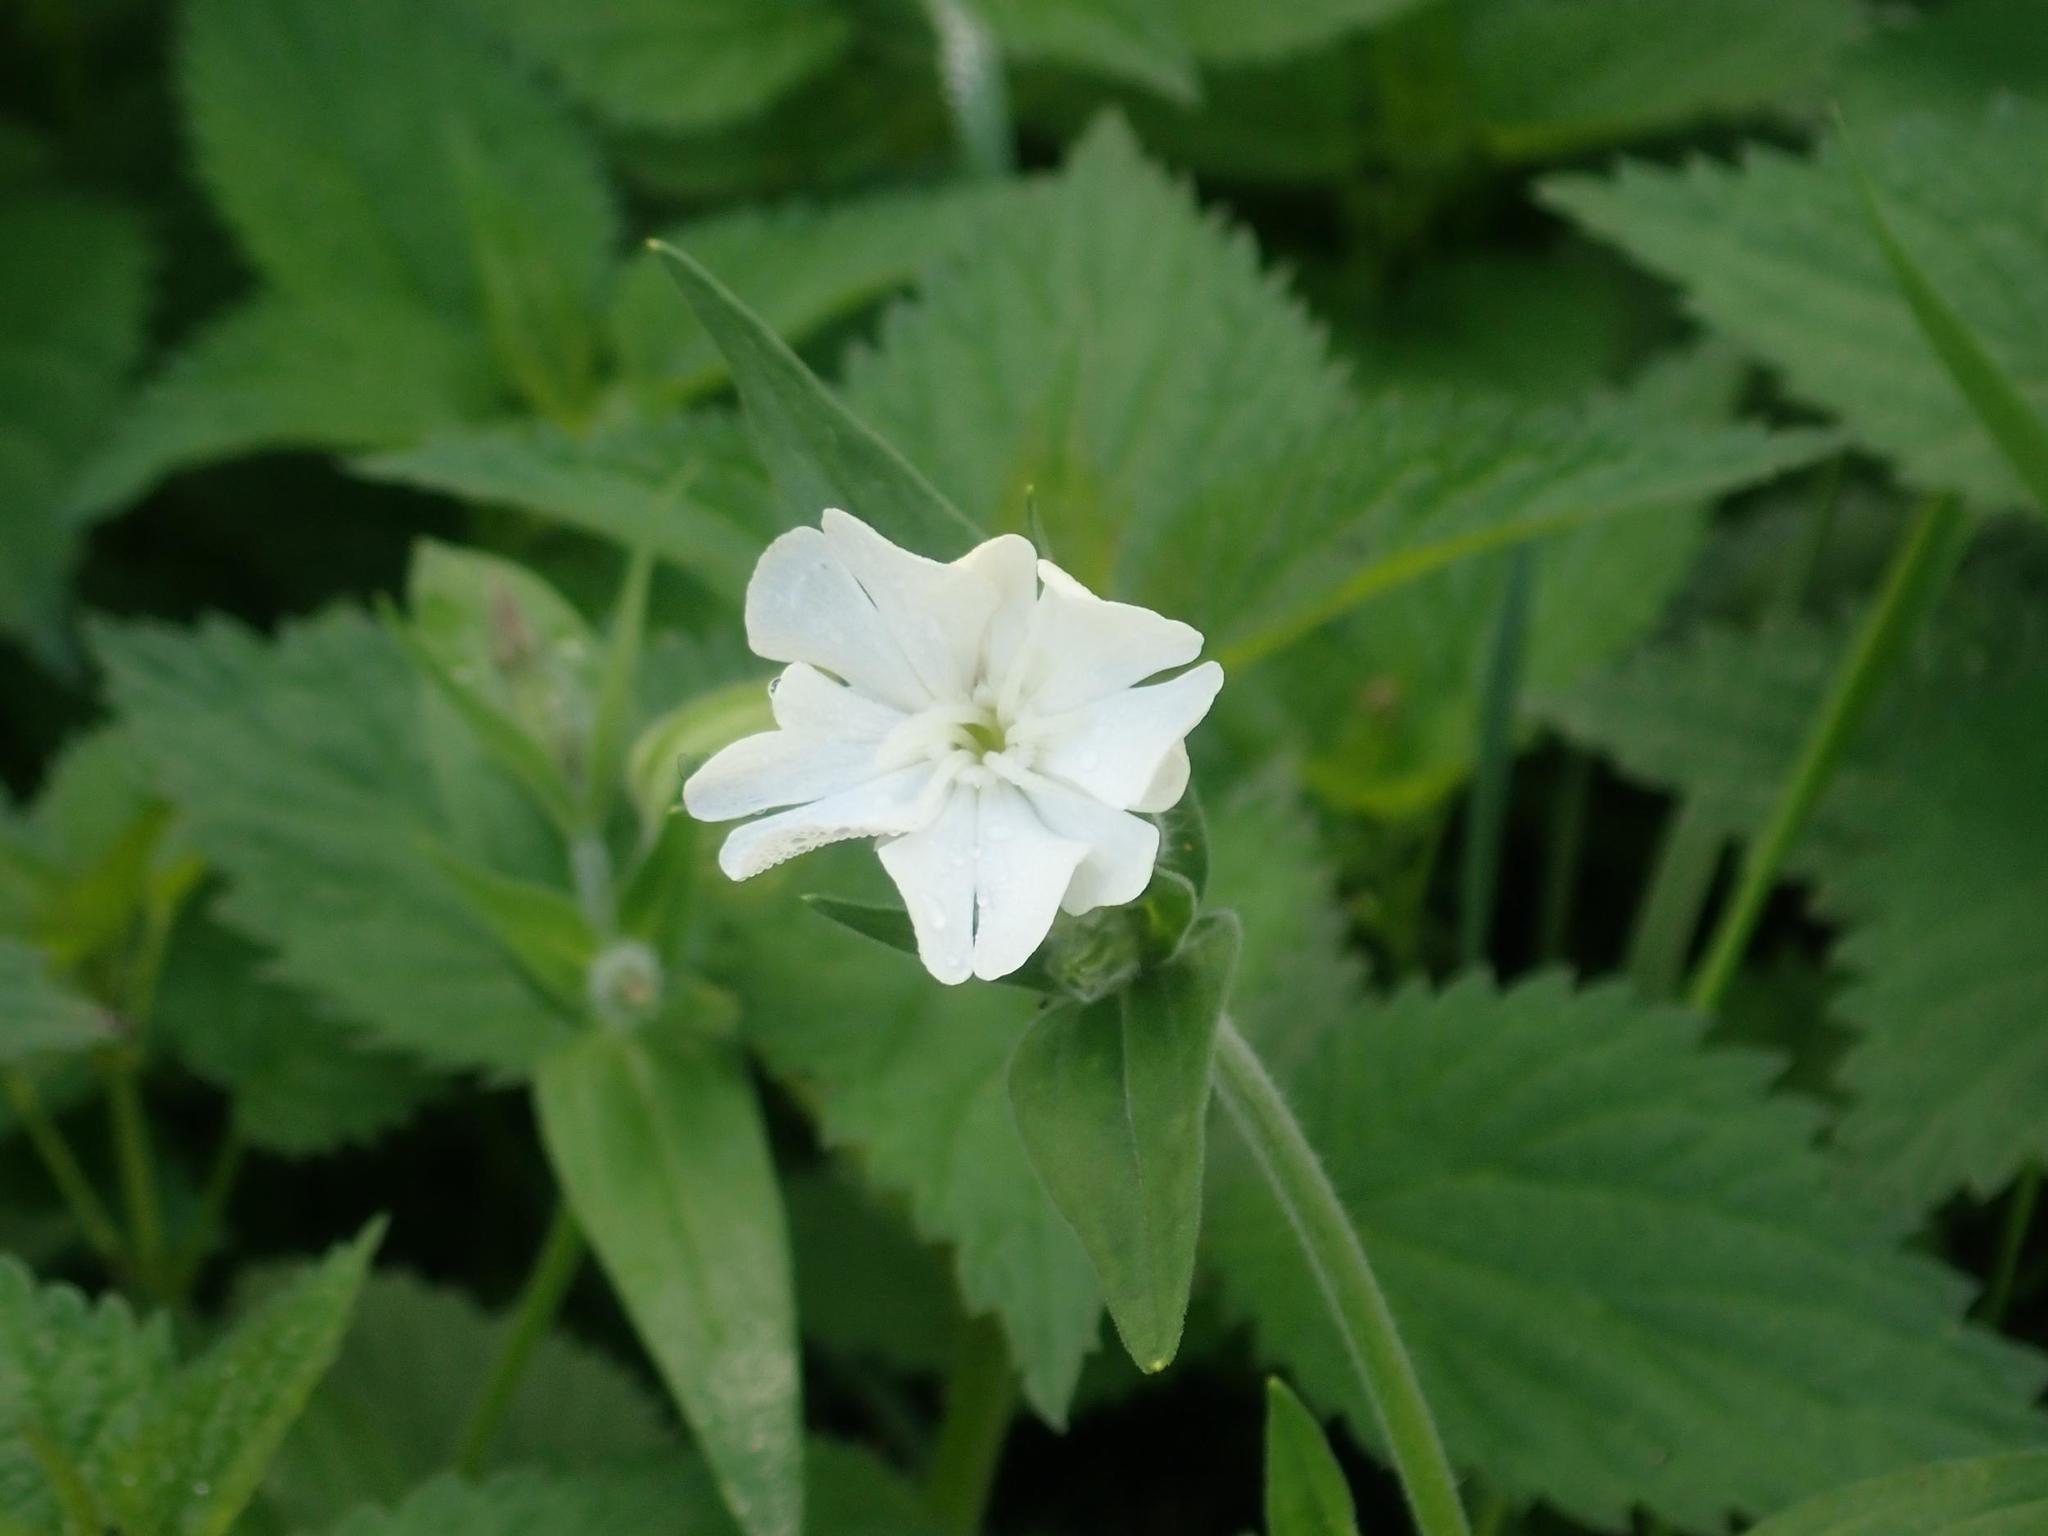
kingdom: Plantae
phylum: Tracheophyta
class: Magnoliopsida
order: Caryophyllales
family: Caryophyllaceae
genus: Silene
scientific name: Silene latifolia
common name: White campion
